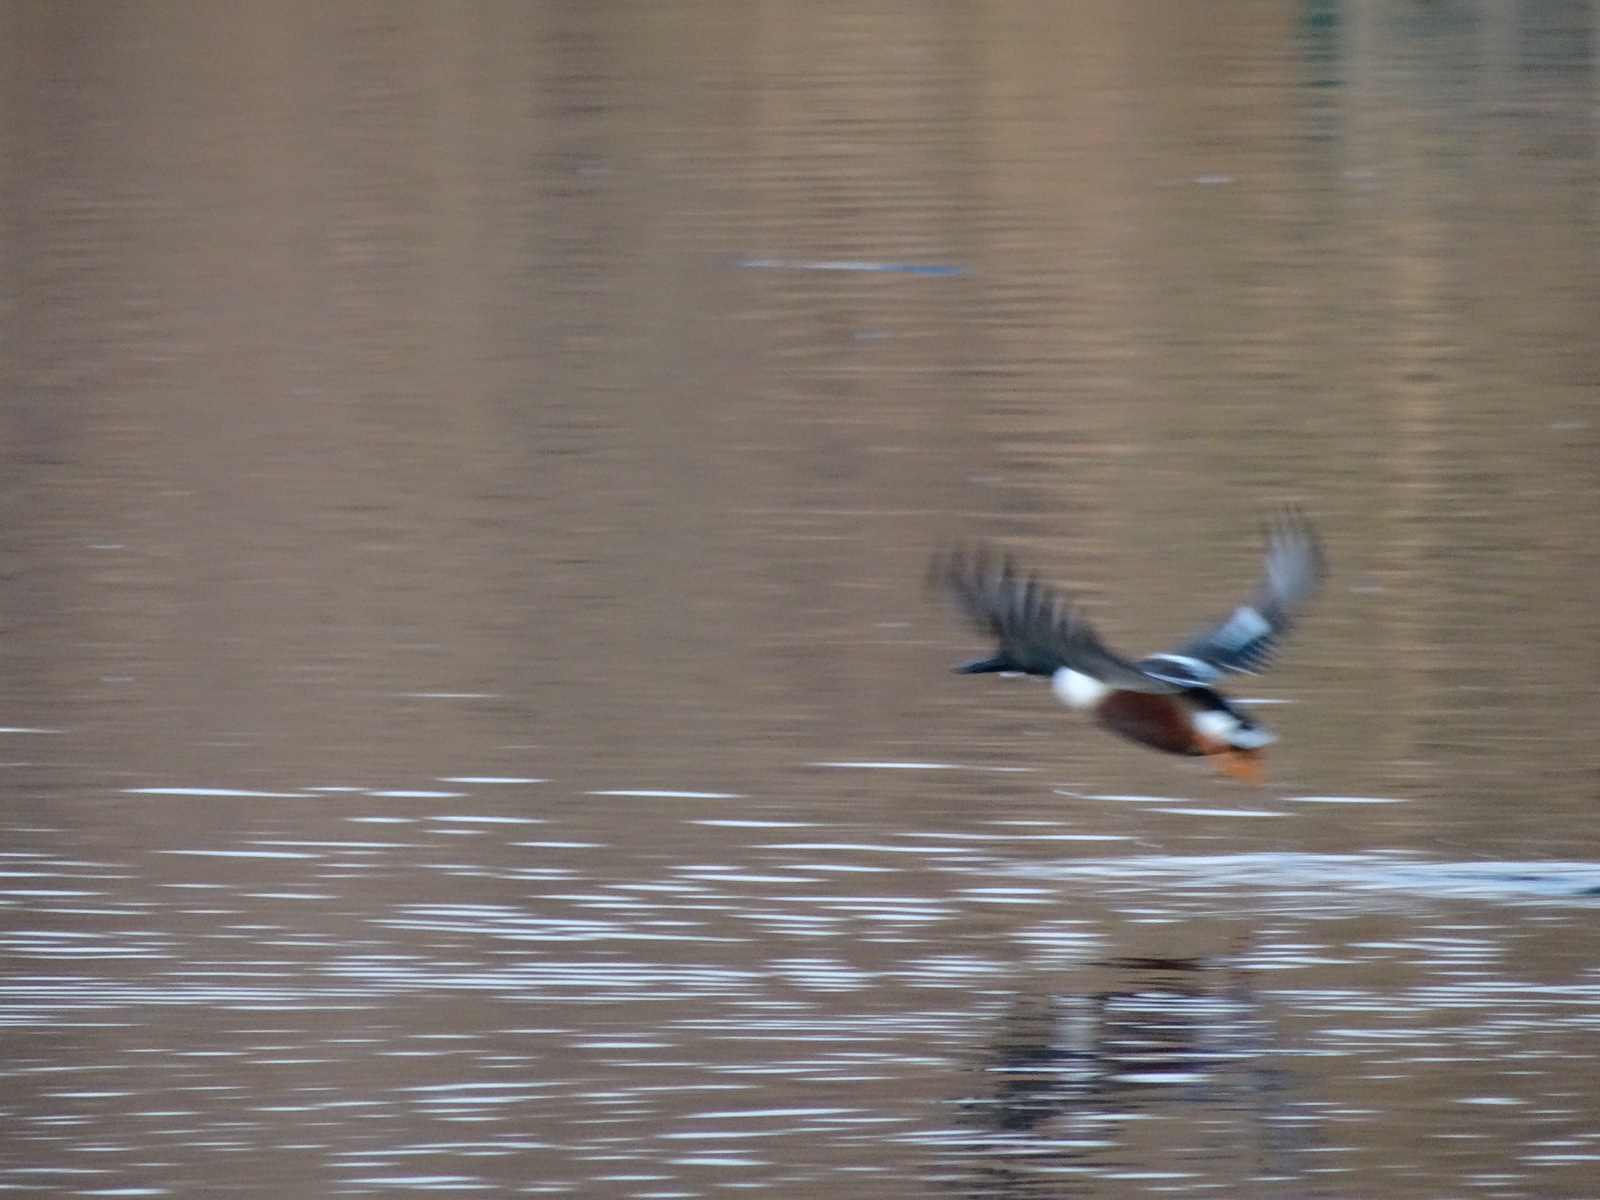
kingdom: Animalia
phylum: Chordata
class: Aves
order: Anseriformes
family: Anatidae
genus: Spatula
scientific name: Spatula clypeata
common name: Northern shoveler
